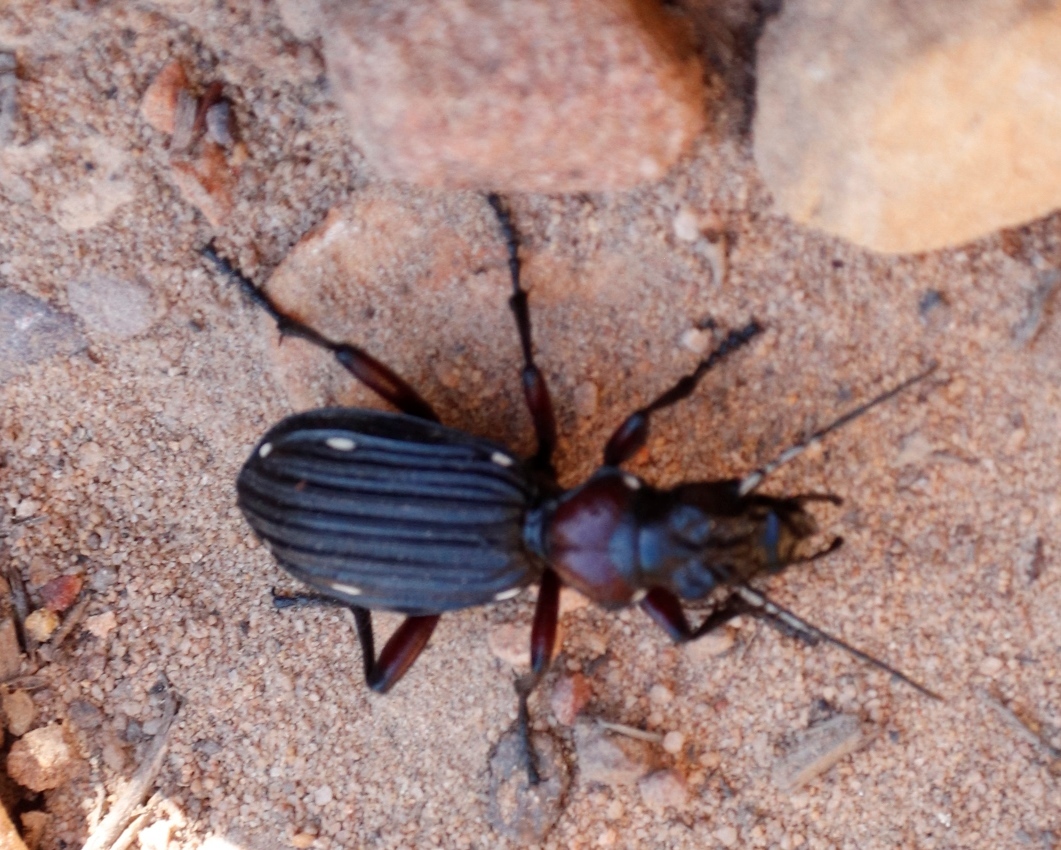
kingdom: Animalia
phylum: Arthropoda
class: Insecta
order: Coleoptera
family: Carabidae
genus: Anthia
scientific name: Anthia decemguttata
